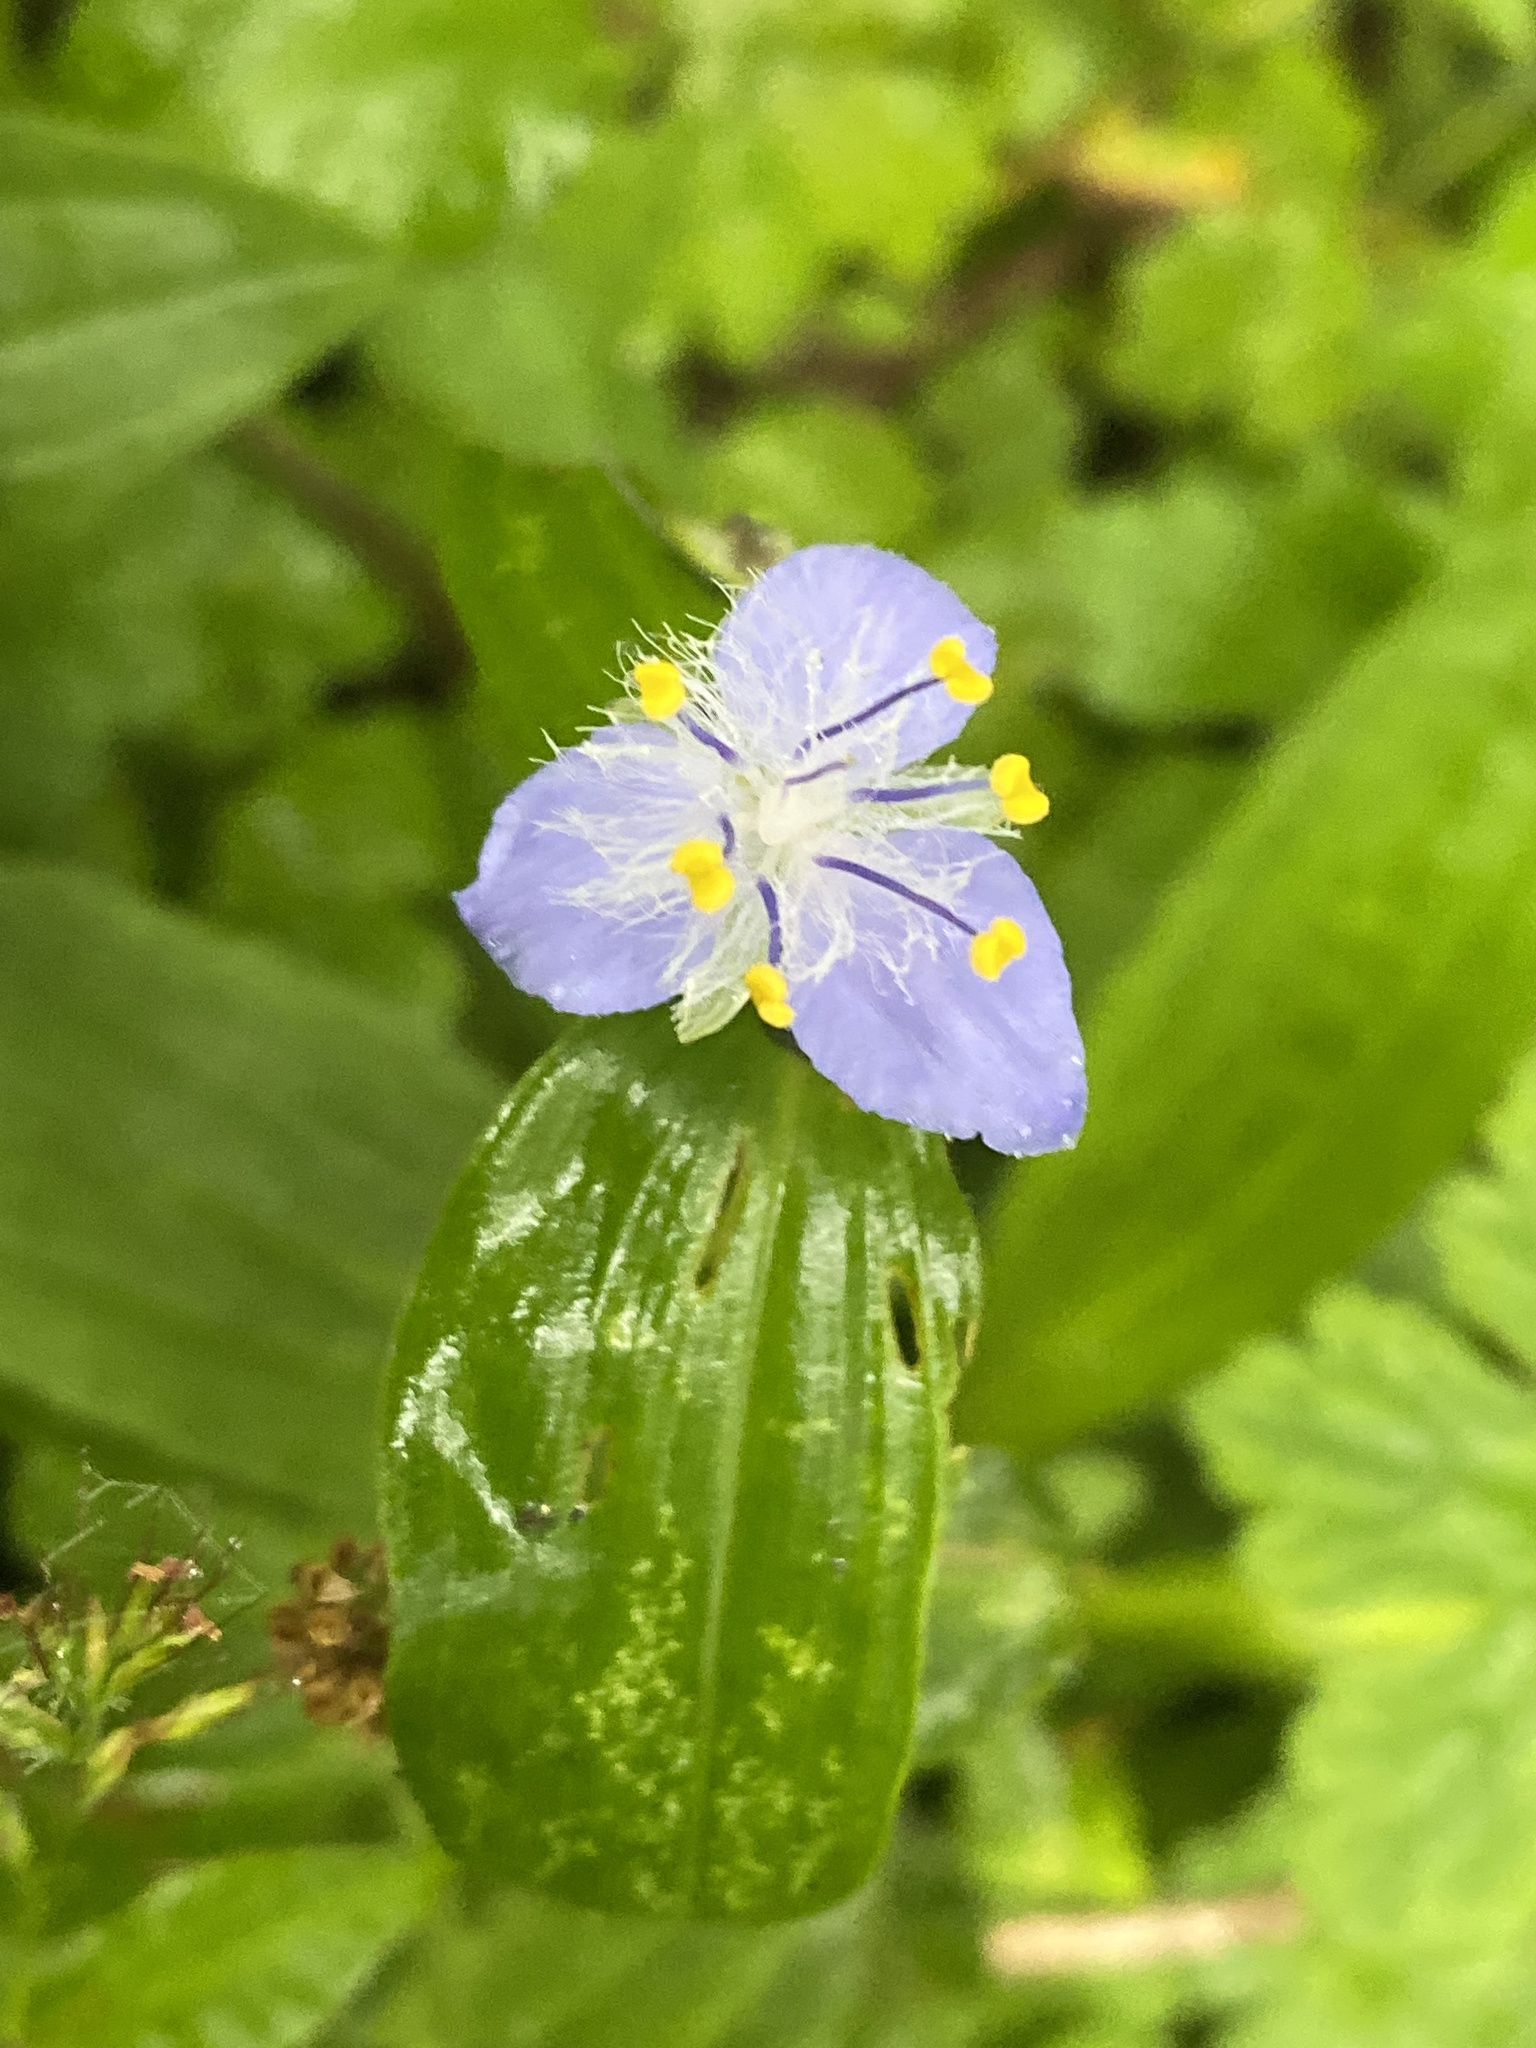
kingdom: Plantae
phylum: Tracheophyta
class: Liliopsida
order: Commelinales
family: Commelinaceae
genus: Elasis
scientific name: Elasis guatemalensis
